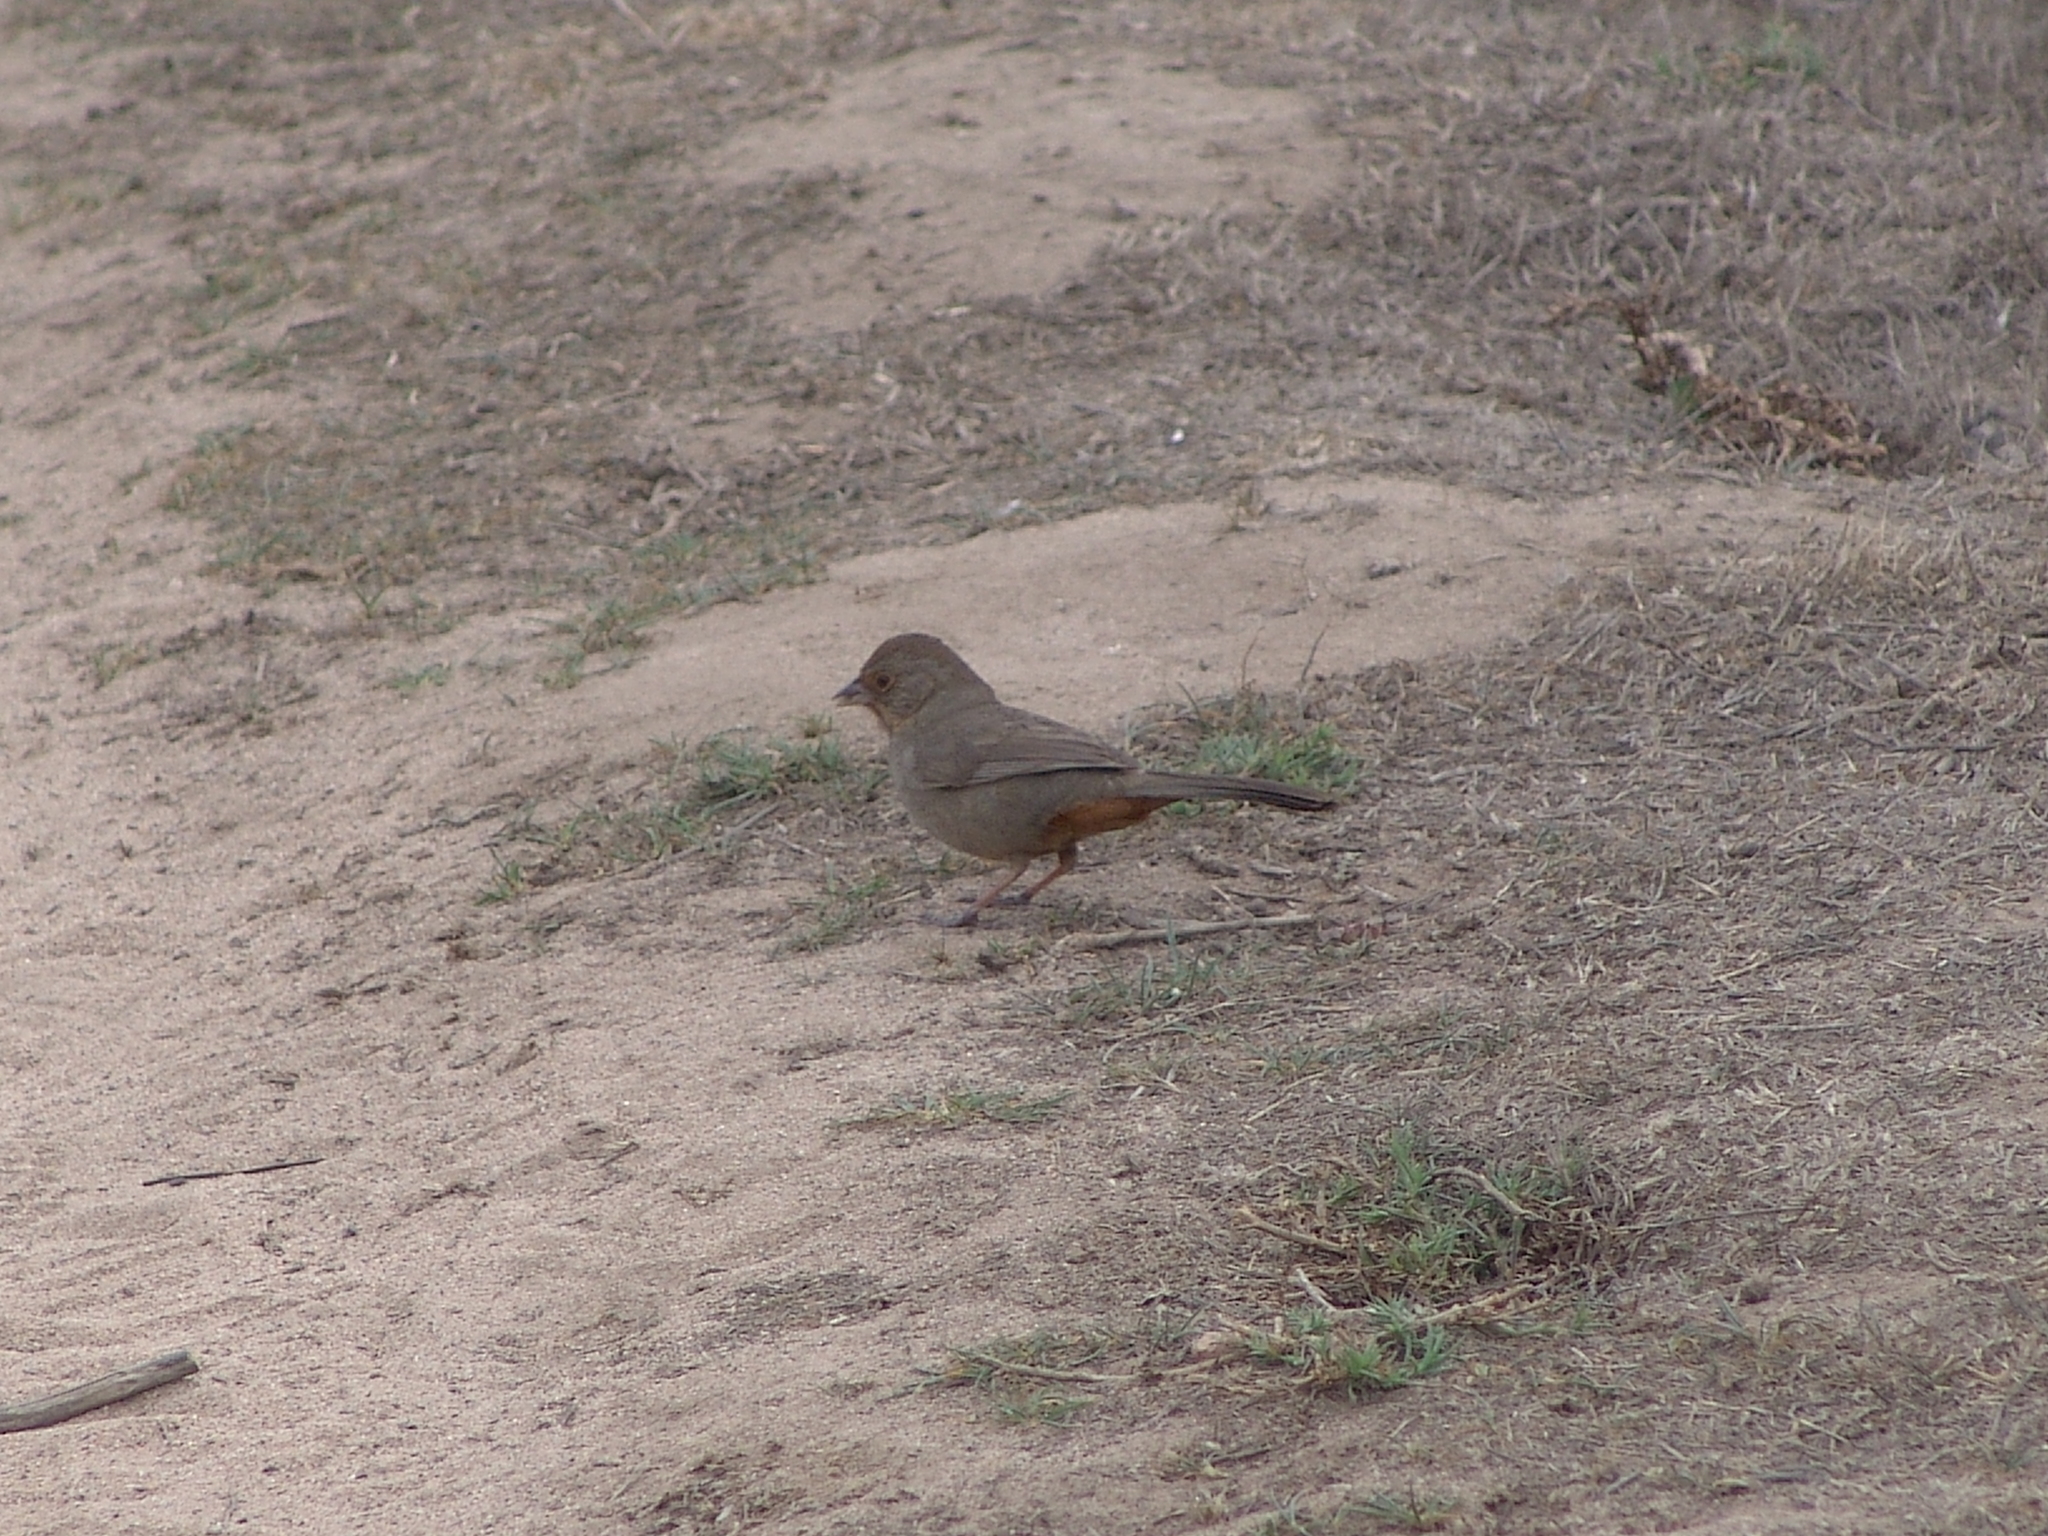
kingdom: Animalia
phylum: Chordata
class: Aves
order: Passeriformes
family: Passerellidae
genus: Melozone
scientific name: Melozone crissalis
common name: California towhee
